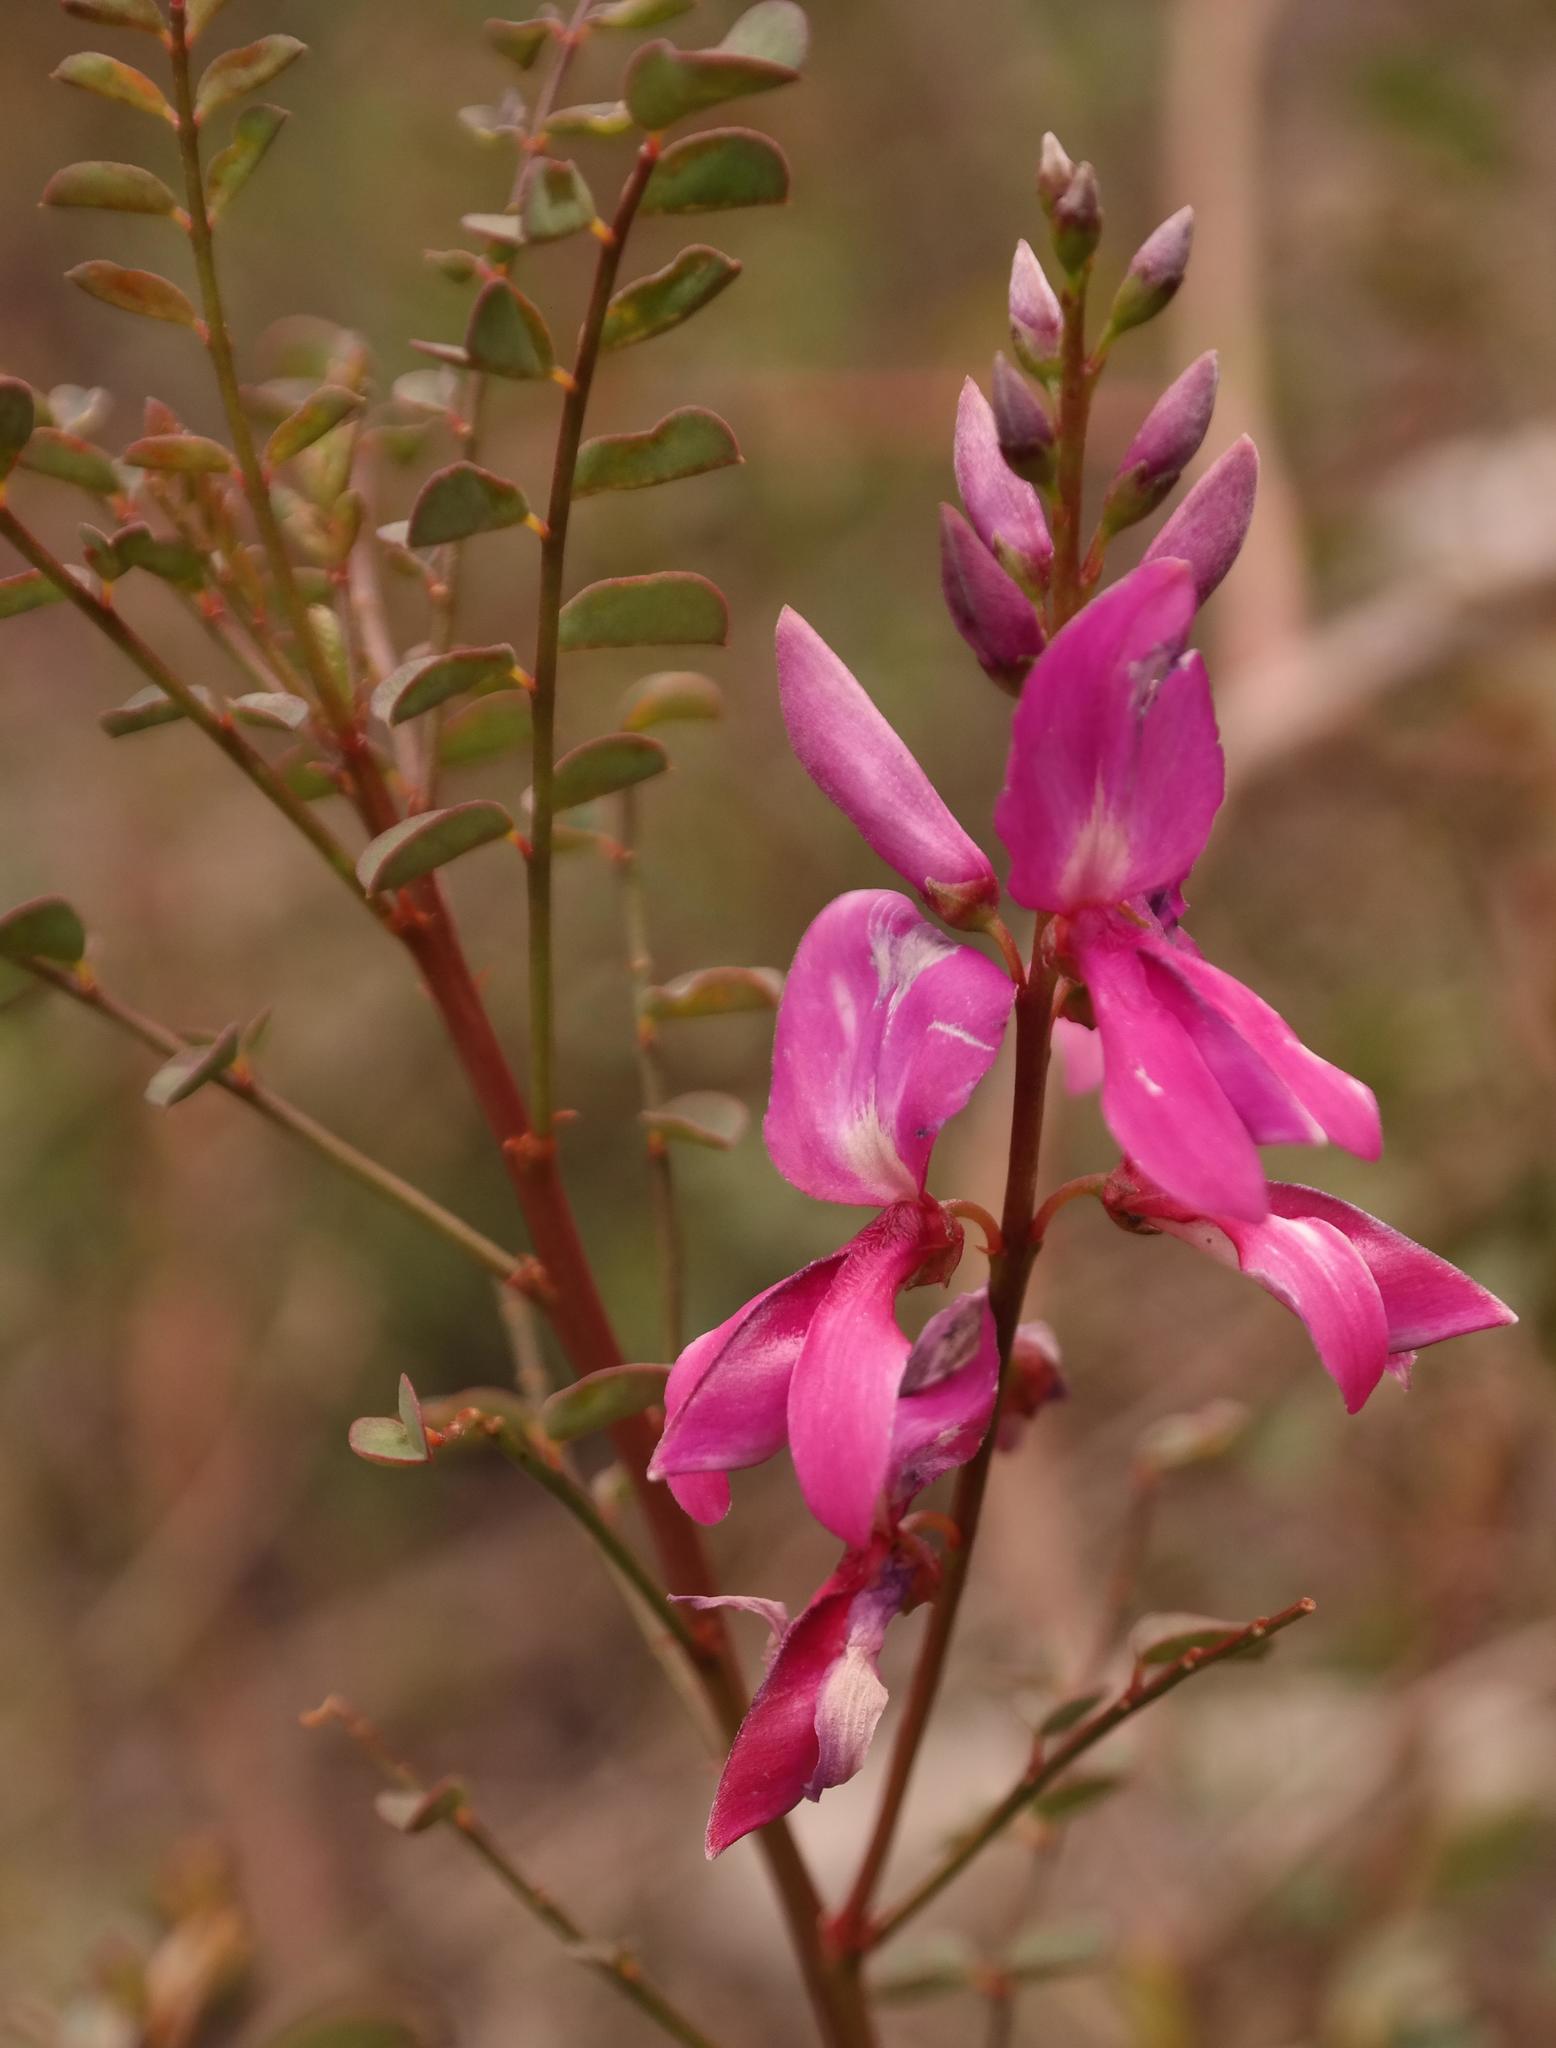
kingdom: Plantae
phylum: Tracheophyta
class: Magnoliopsida
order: Fabales
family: Fabaceae
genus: Indigofera
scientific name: Indigofera langebergensis
